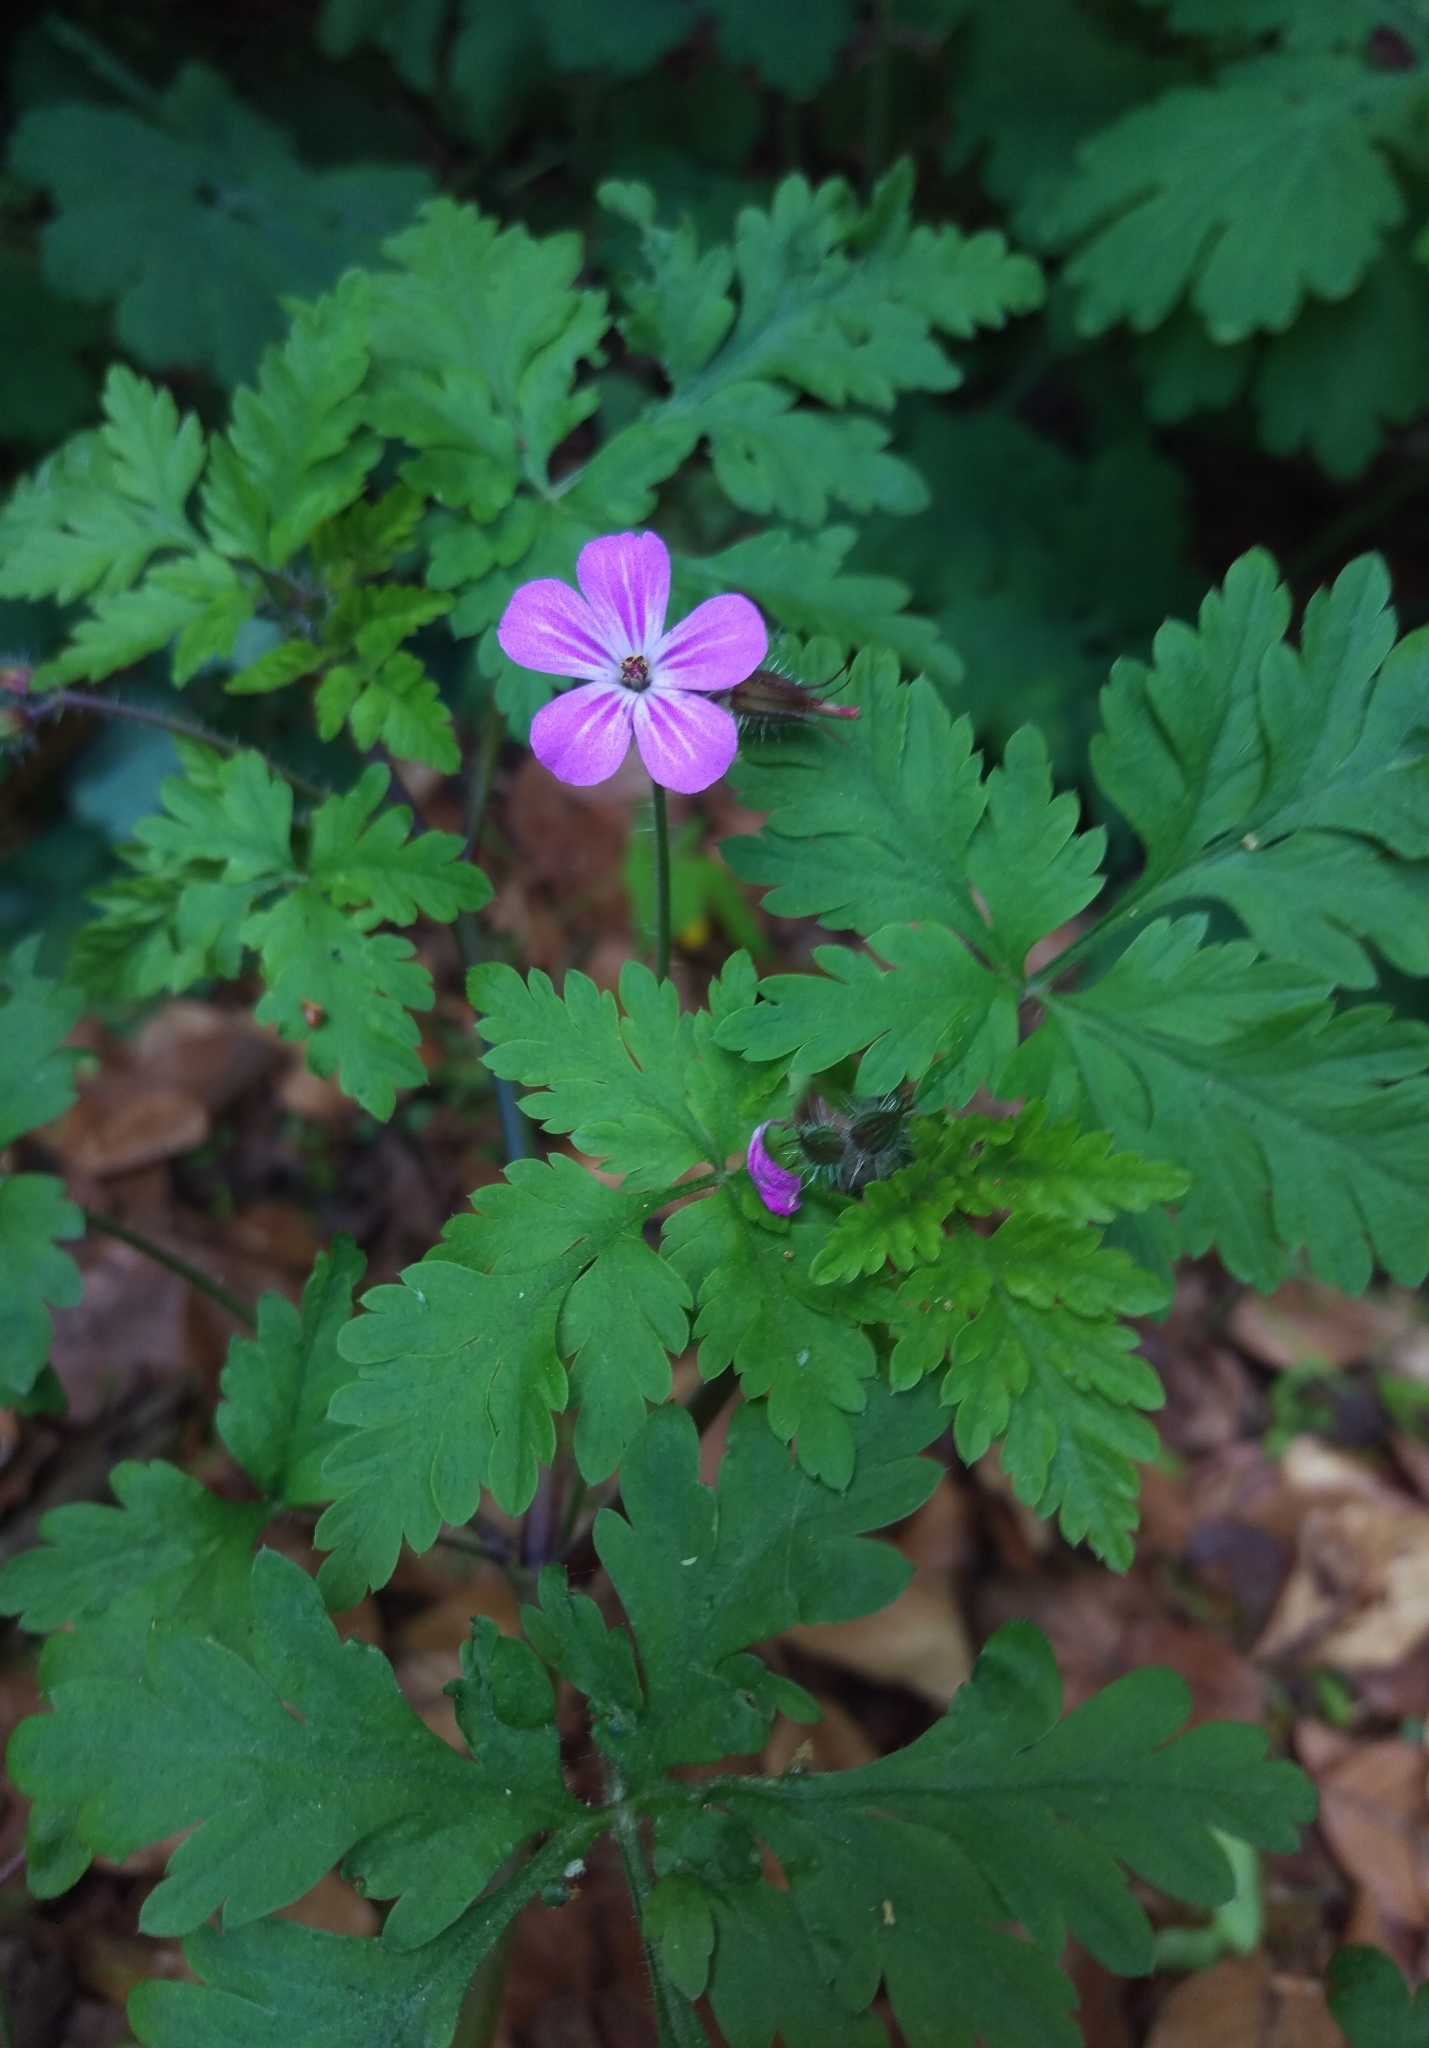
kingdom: Plantae
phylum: Tracheophyta
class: Magnoliopsida
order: Geraniales
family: Geraniaceae
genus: Geranium
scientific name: Geranium robertianum
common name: Herb-robert
